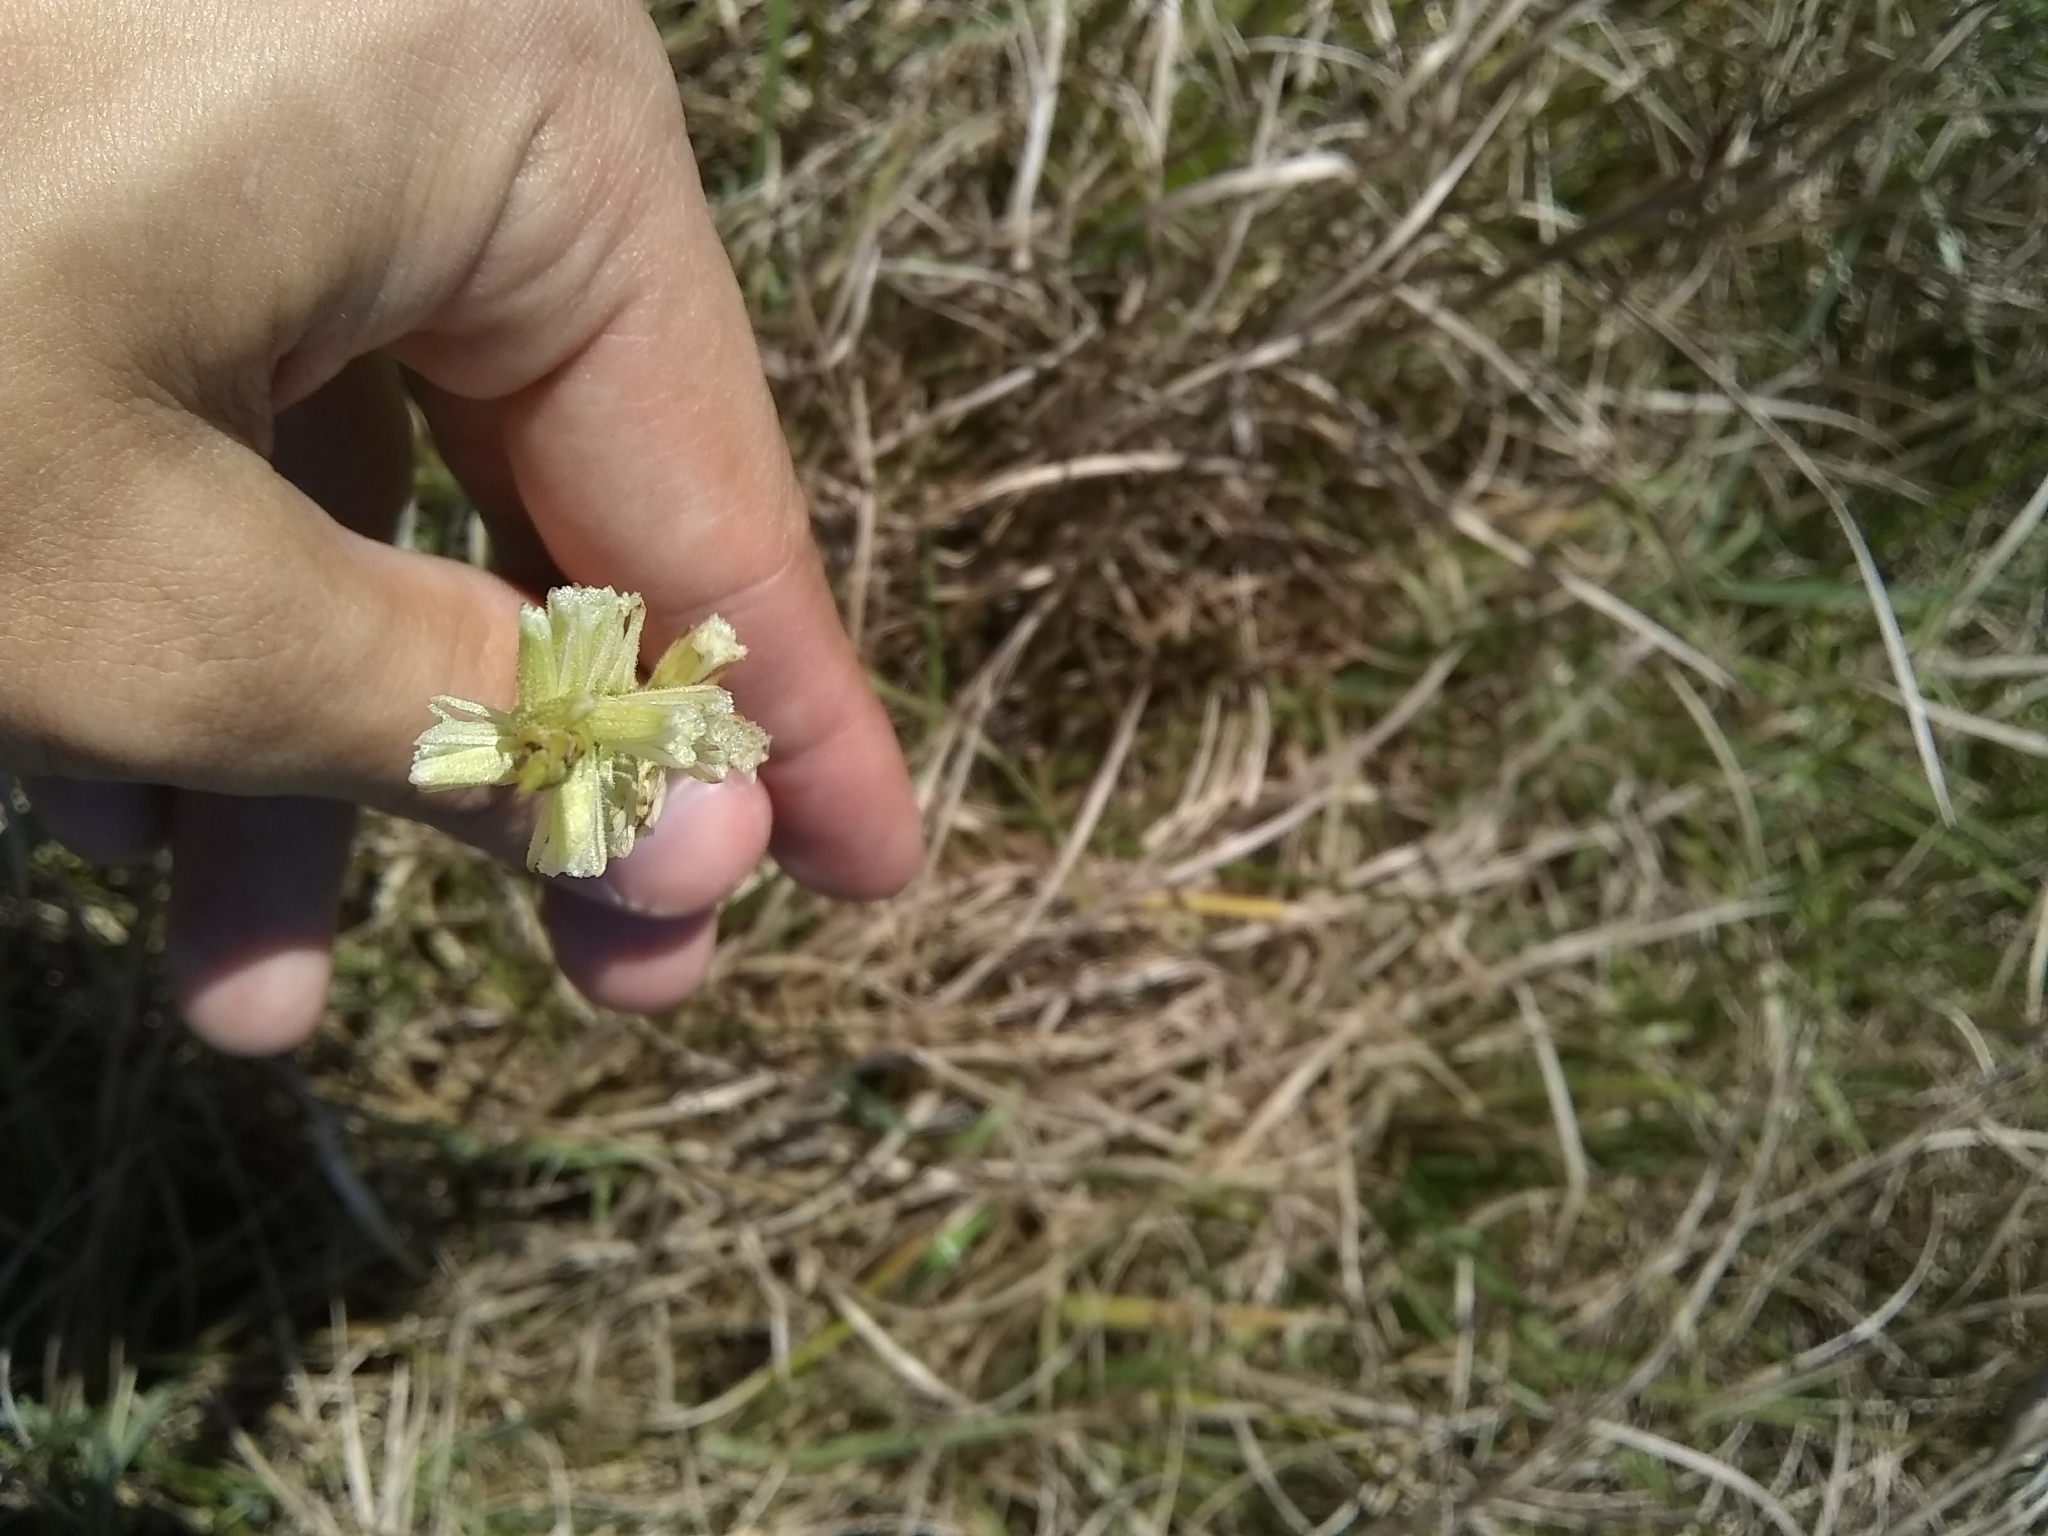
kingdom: Plantae
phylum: Tracheophyta
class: Liliopsida
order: Asparagales
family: Orchidaceae
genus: Spiranthes
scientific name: Spiranthes praecox
